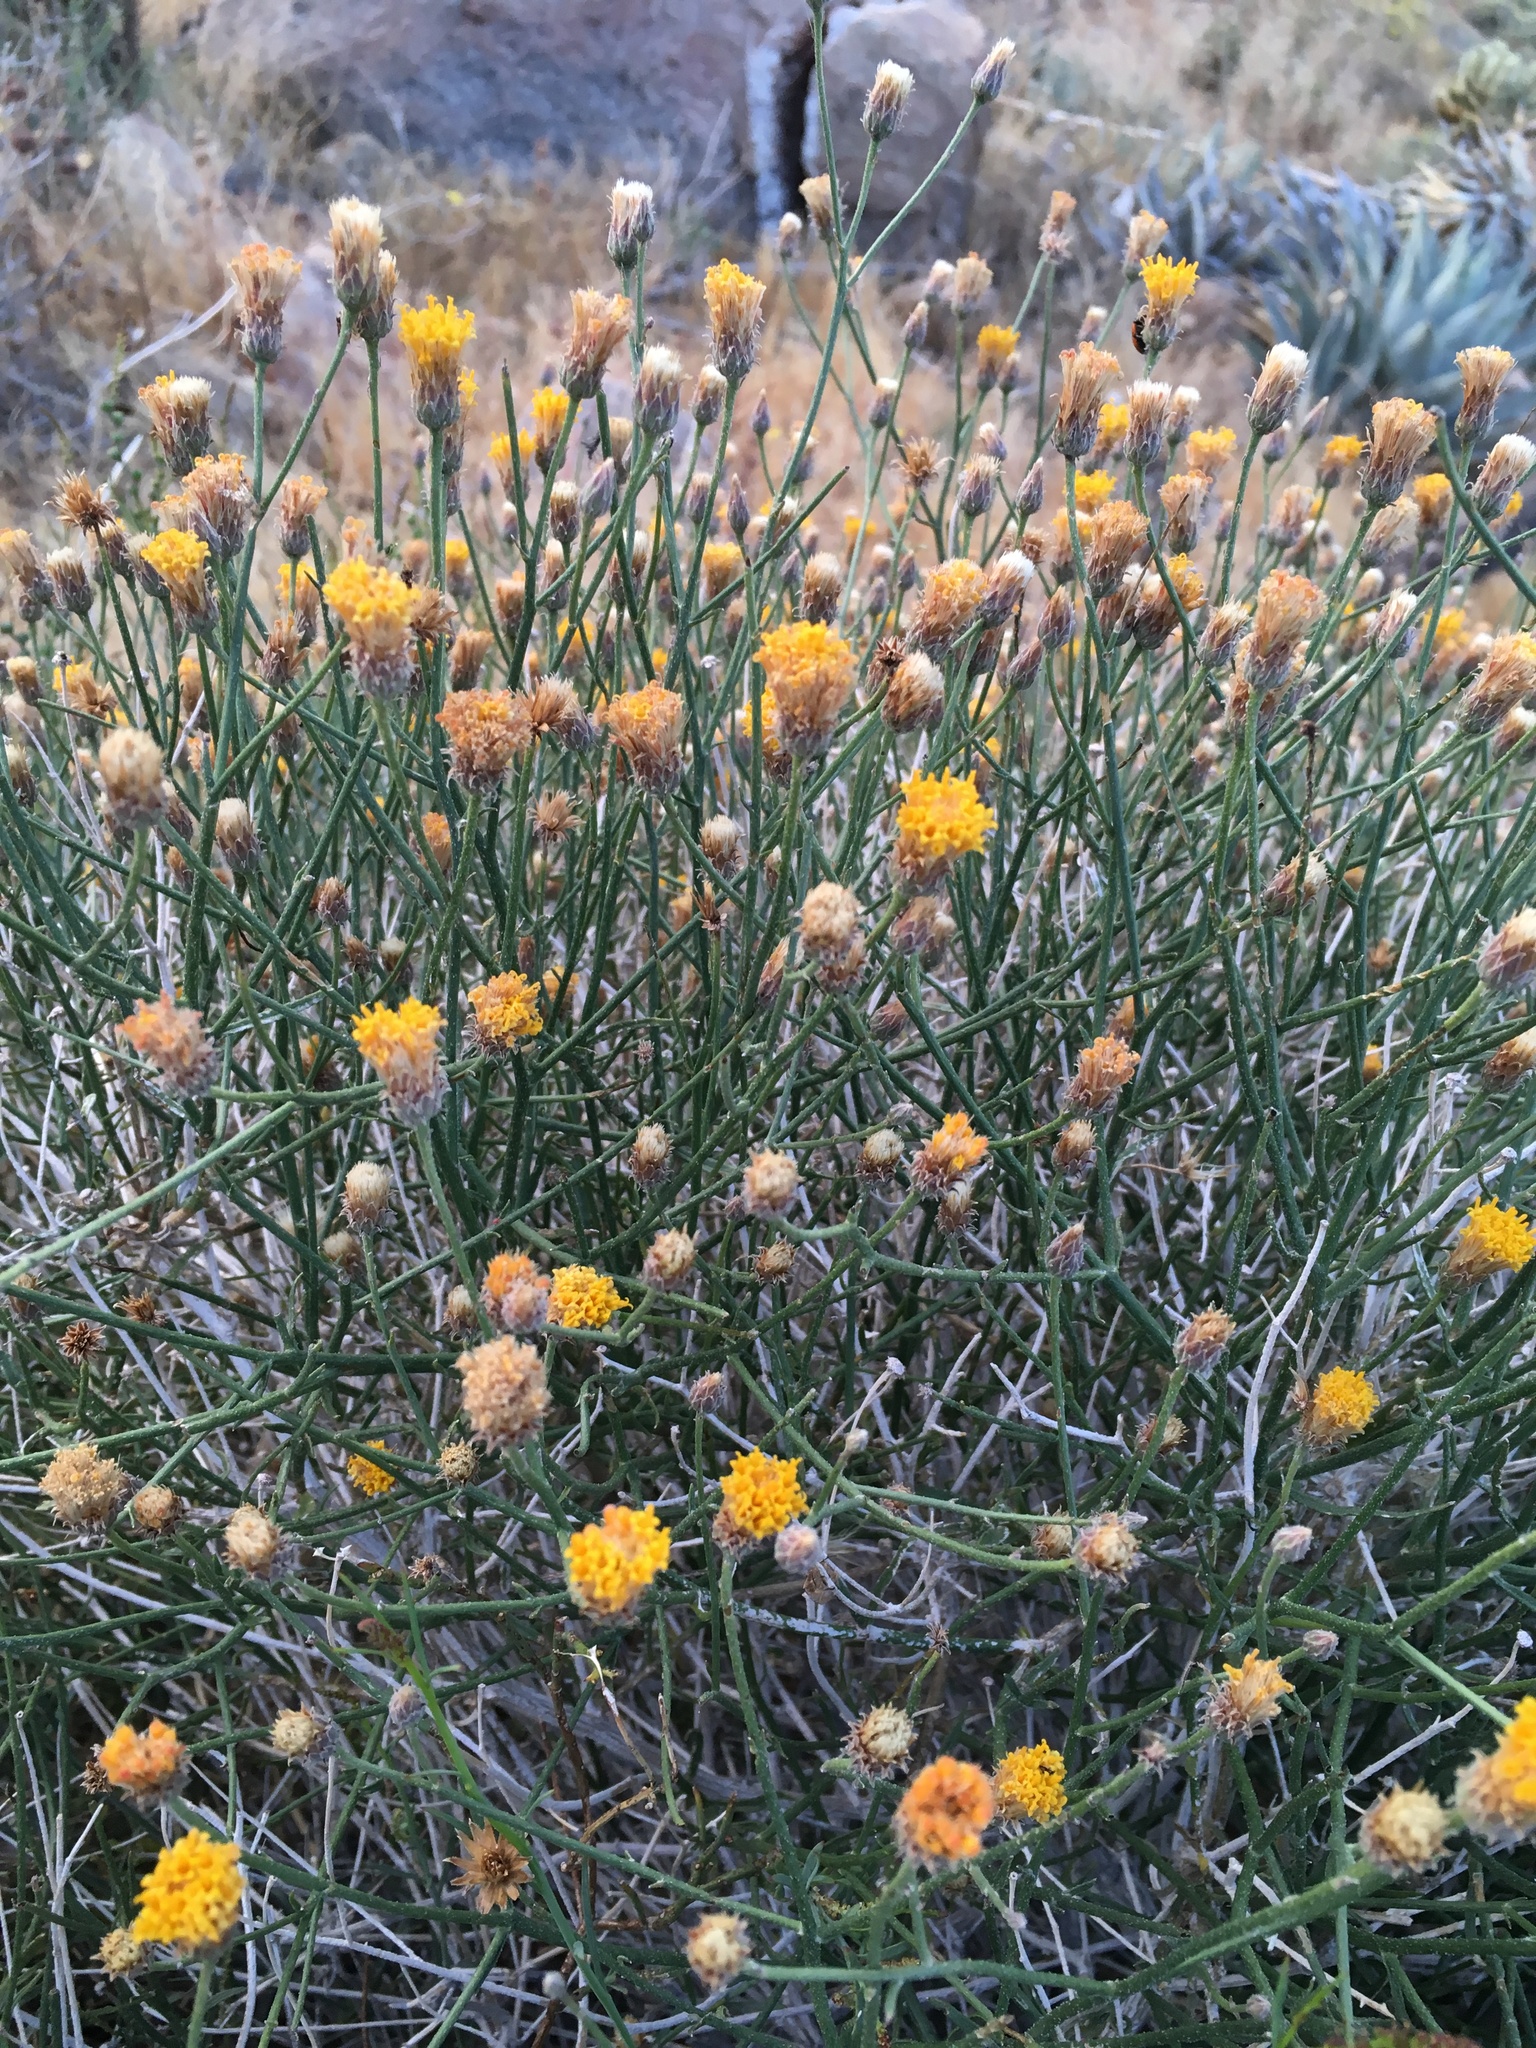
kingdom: Plantae
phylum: Tracheophyta
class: Magnoliopsida
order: Asterales
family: Asteraceae
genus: Bebbia
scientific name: Bebbia juncea
